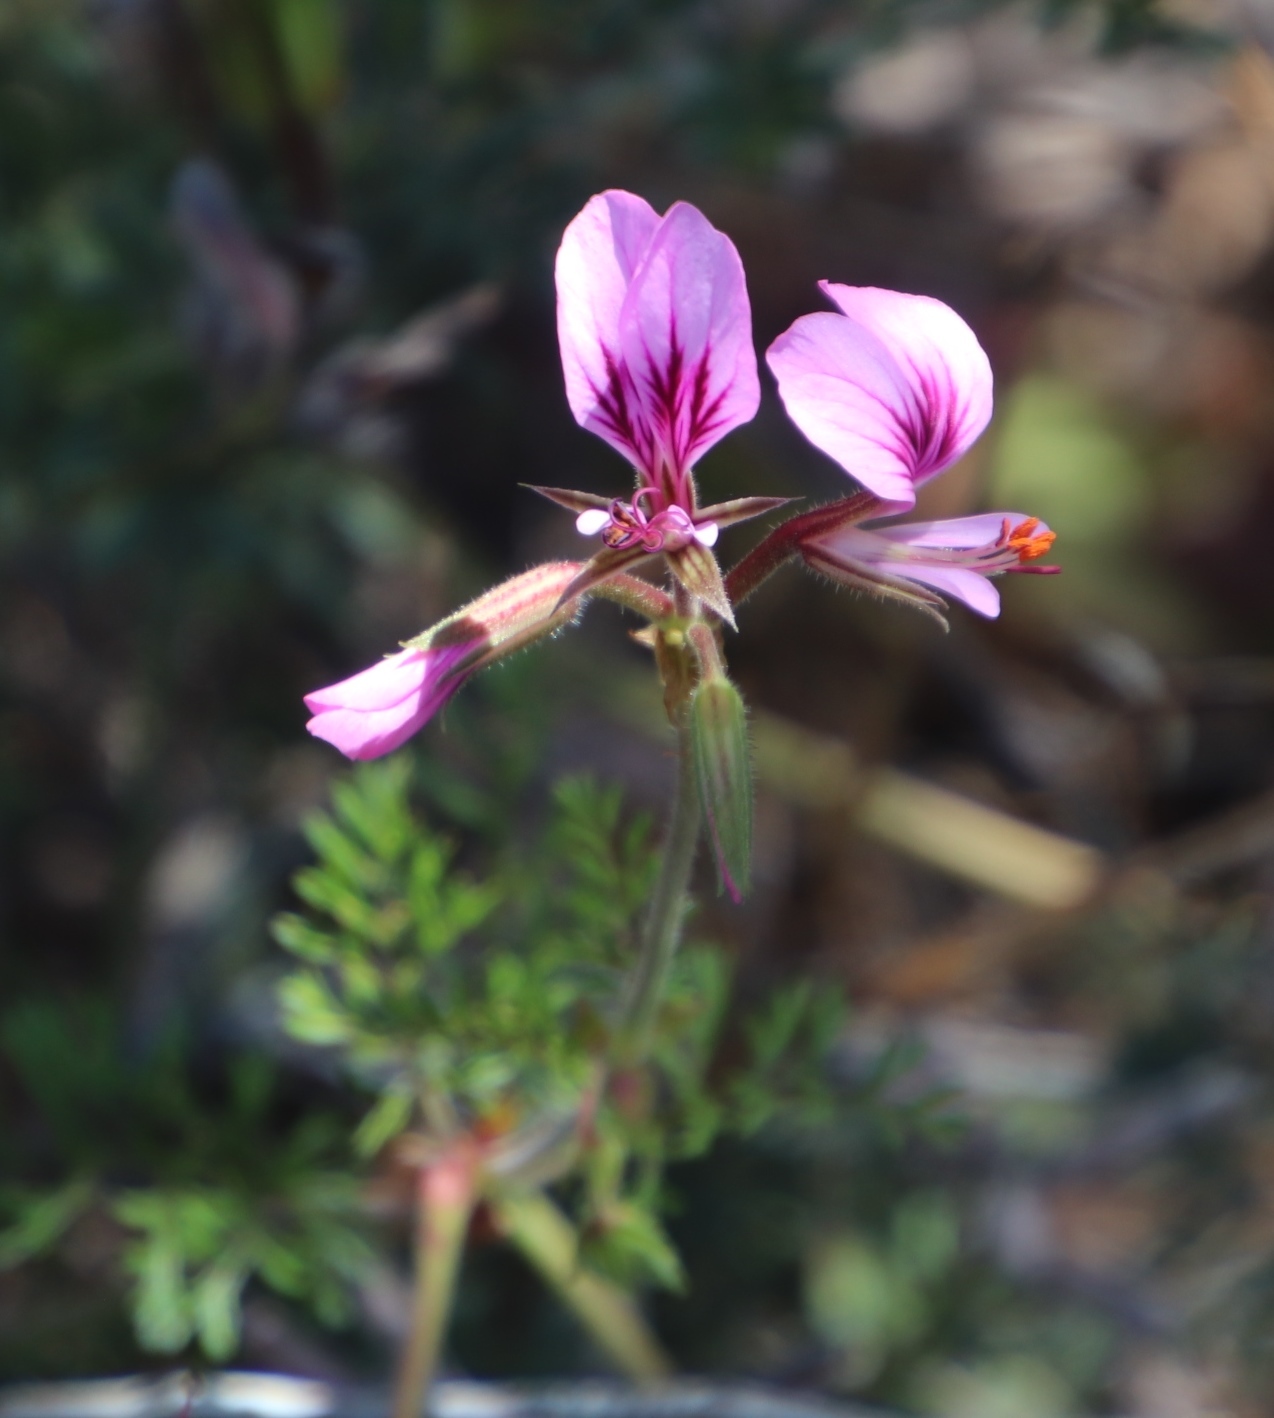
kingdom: Plantae
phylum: Tracheophyta
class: Magnoliopsida
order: Geraniales
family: Geraniaceae
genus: Pelargonium
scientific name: Pelargonium myrrhifolium
